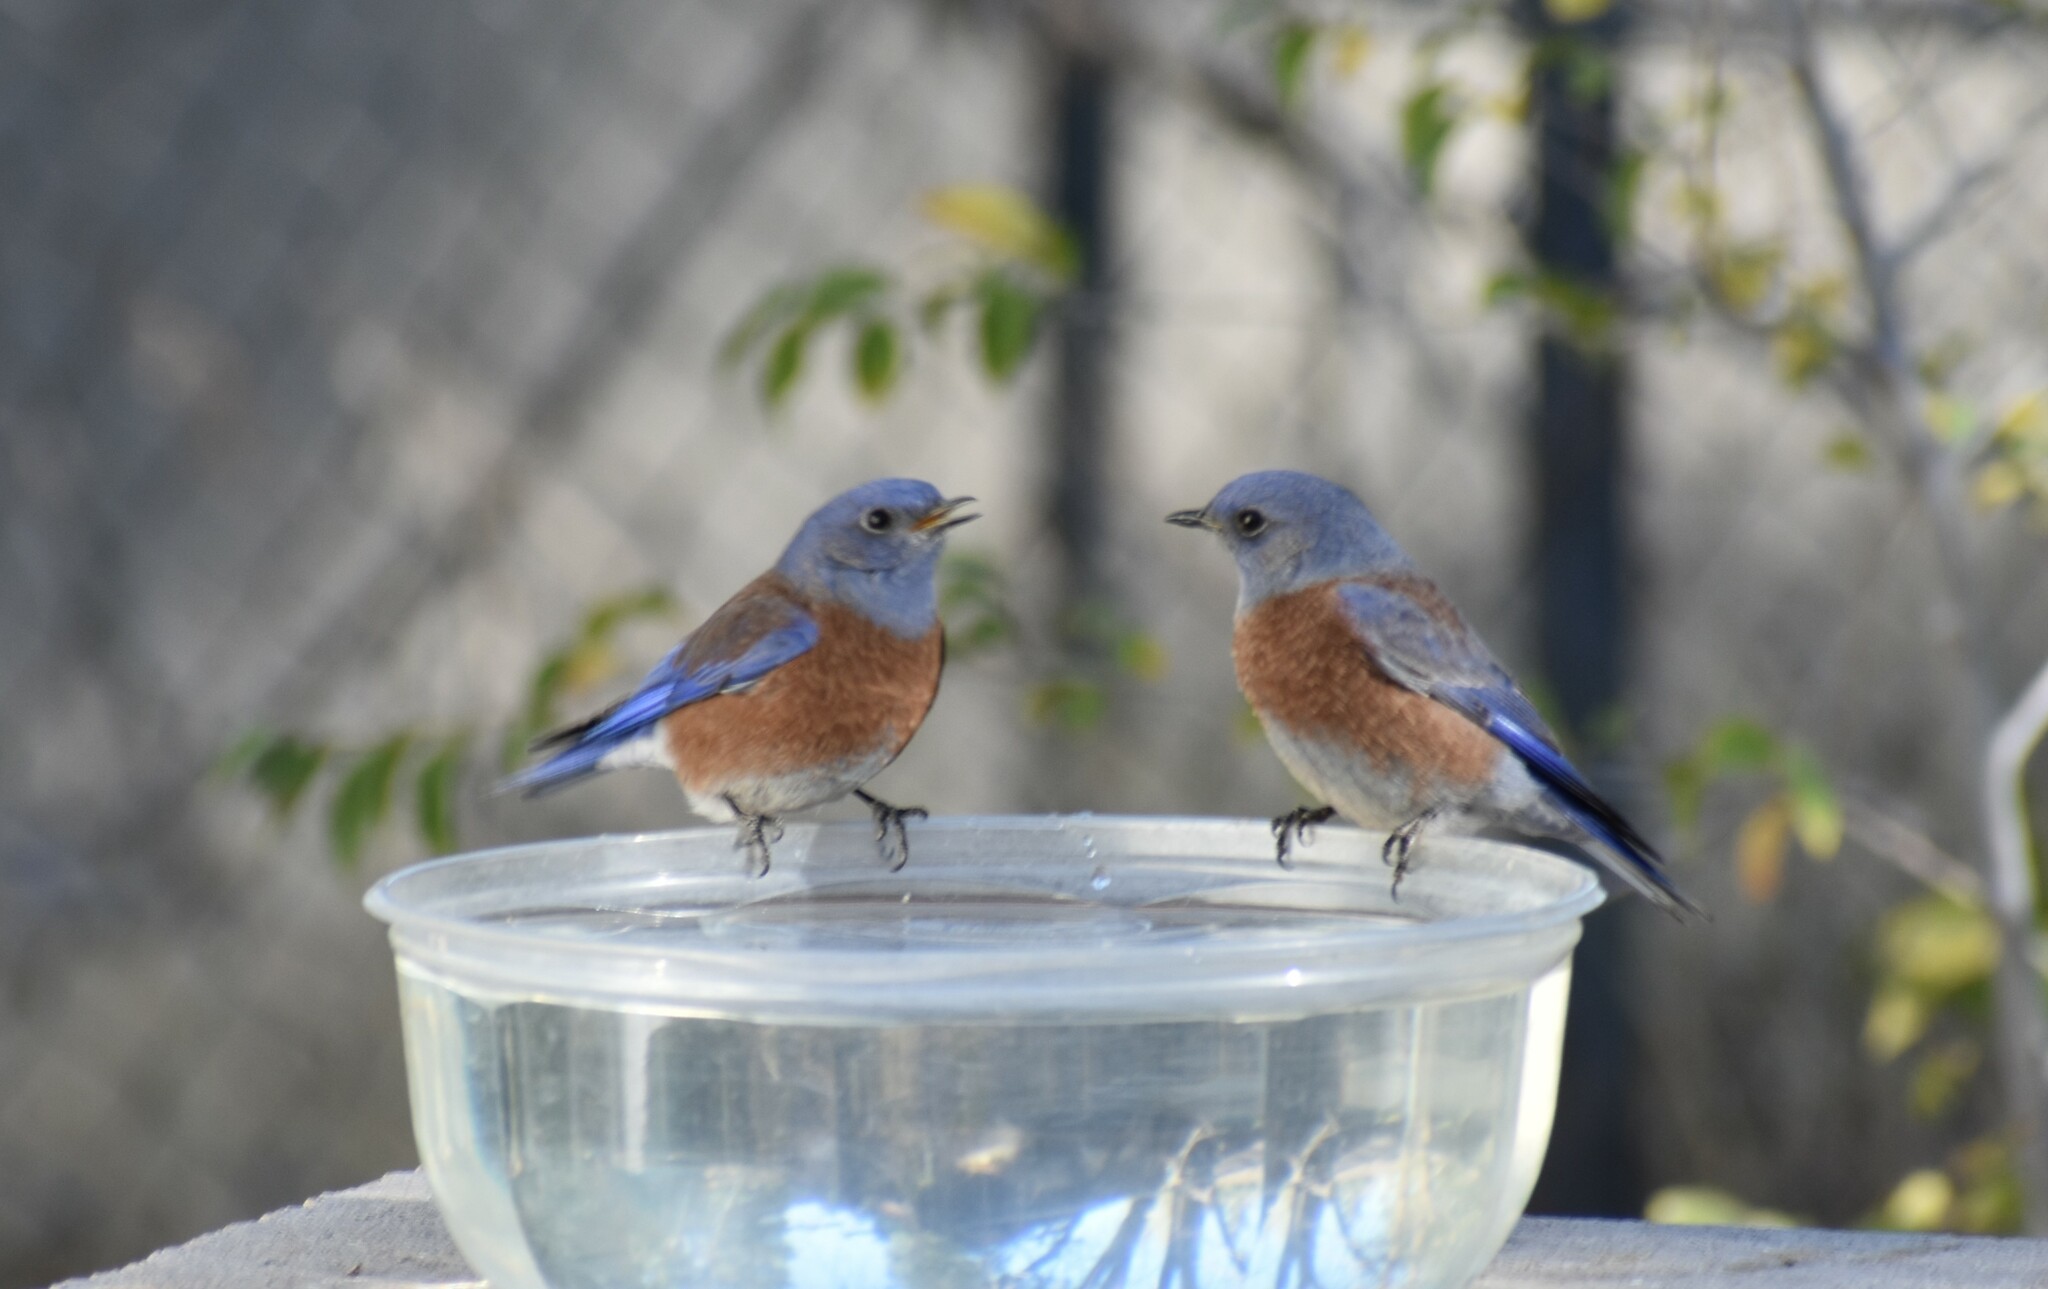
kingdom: Animalia
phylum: Chordata
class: Aves
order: Passeriformes
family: Turdidae
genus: Sialia
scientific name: Sialia mexicana
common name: Western bluebird
